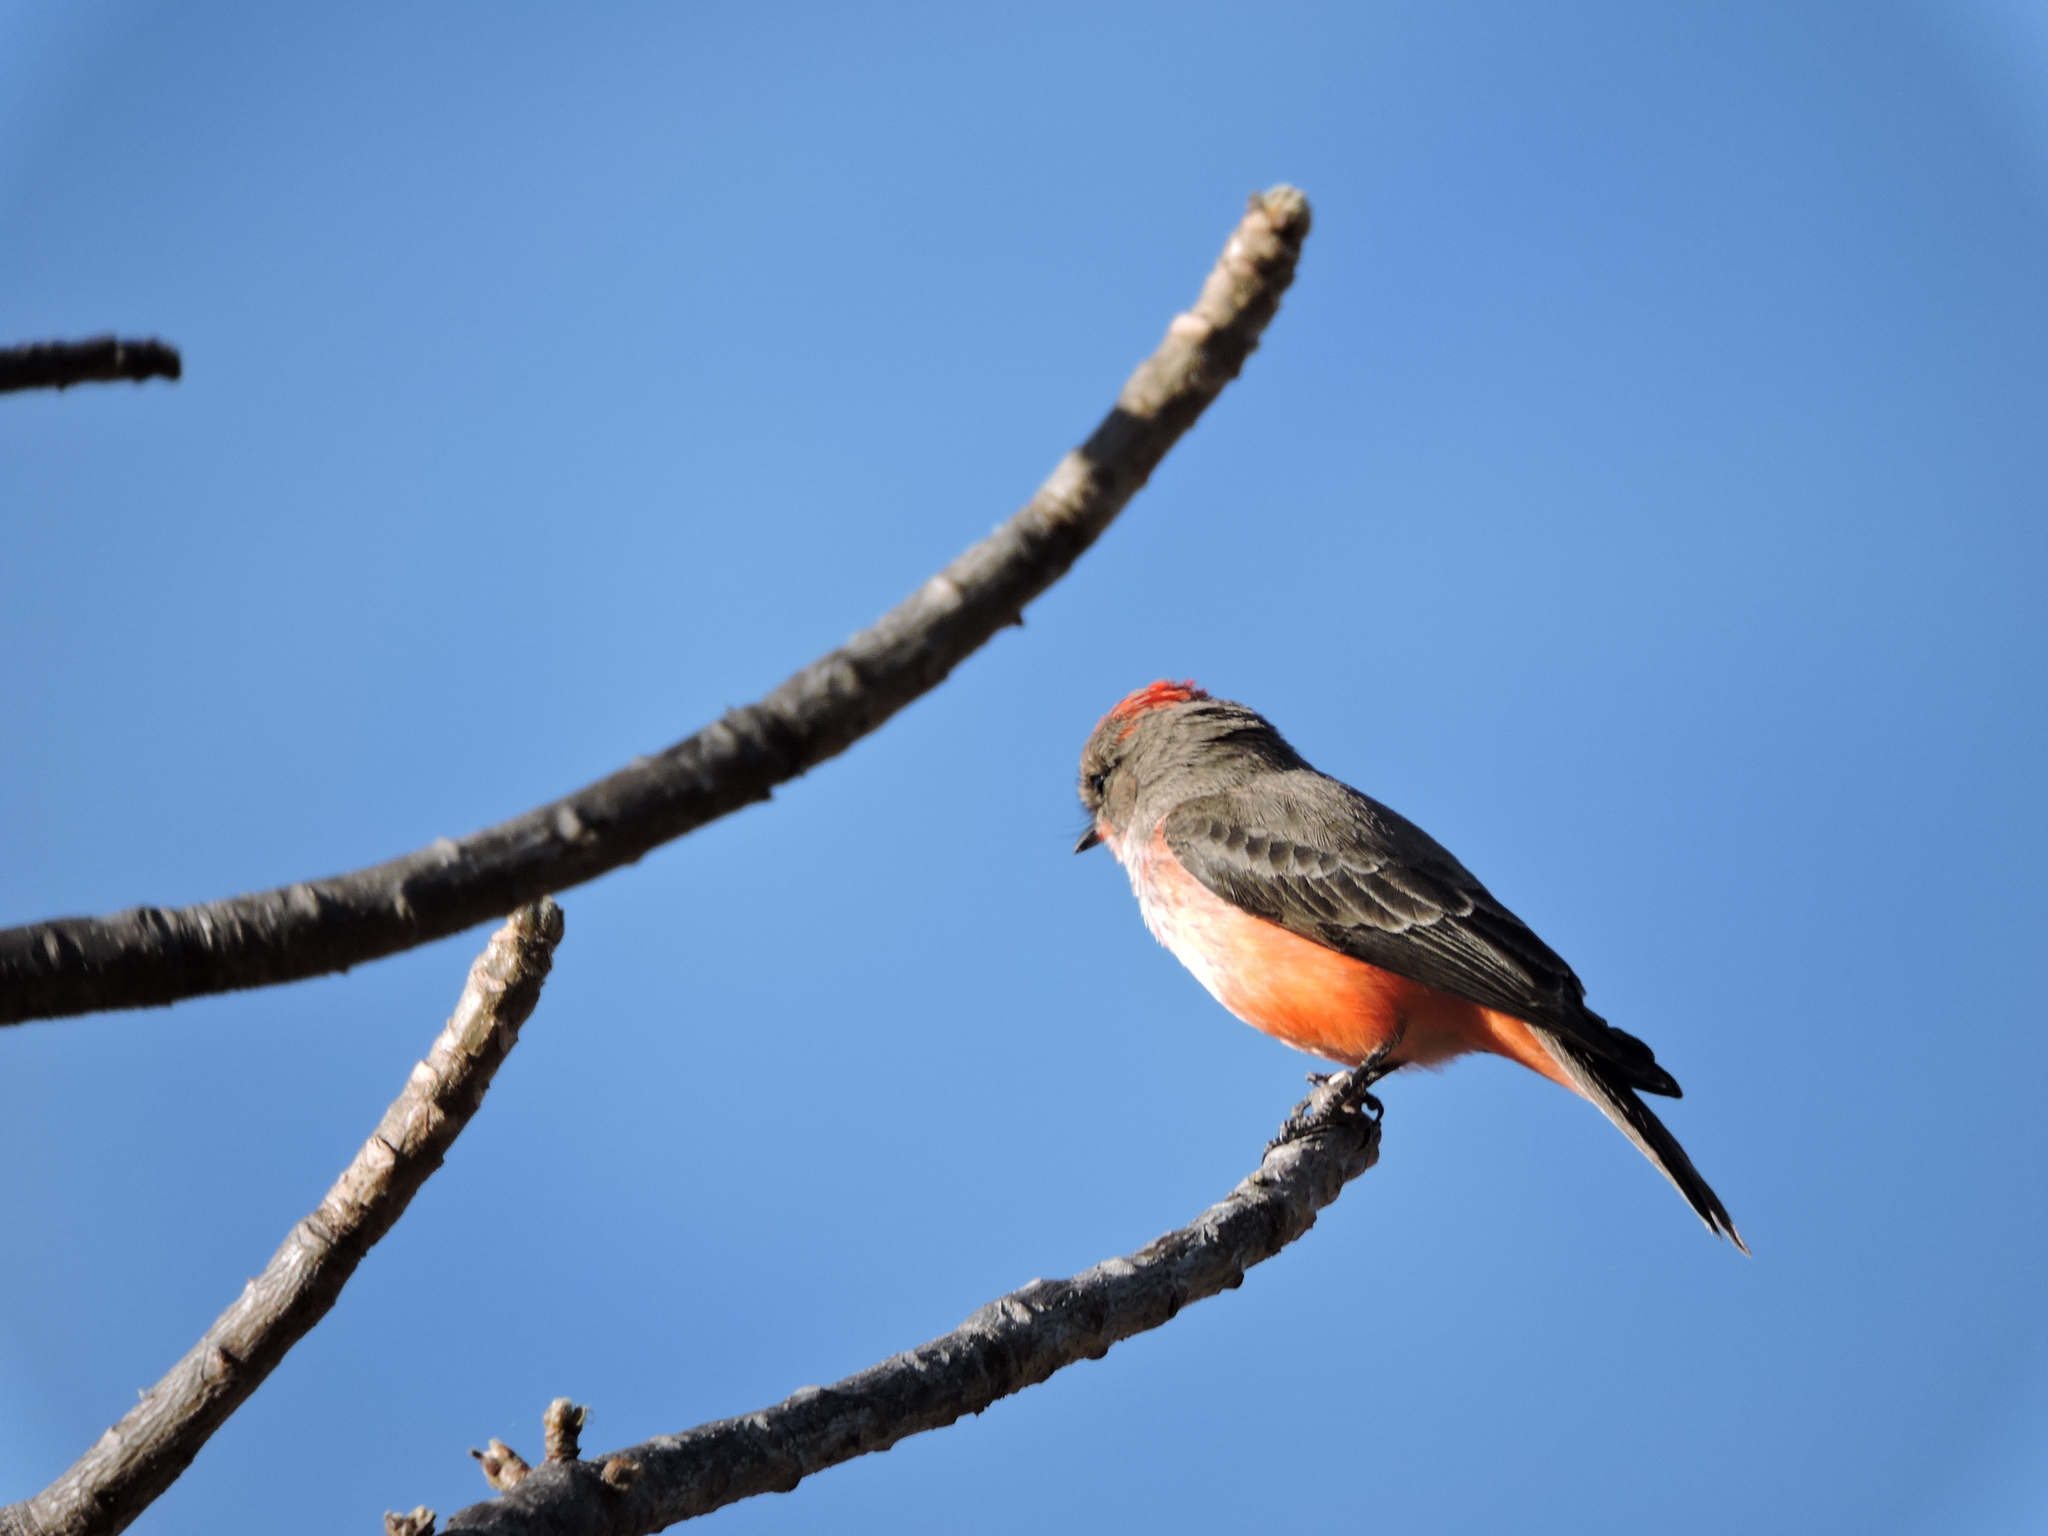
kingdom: Animalia
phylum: Chordata
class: Aves
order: Passeriformes
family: Tyrannidae
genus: Pyrocephalus
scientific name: Pyrocephalus rubinus
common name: Vermilion flycatcher
